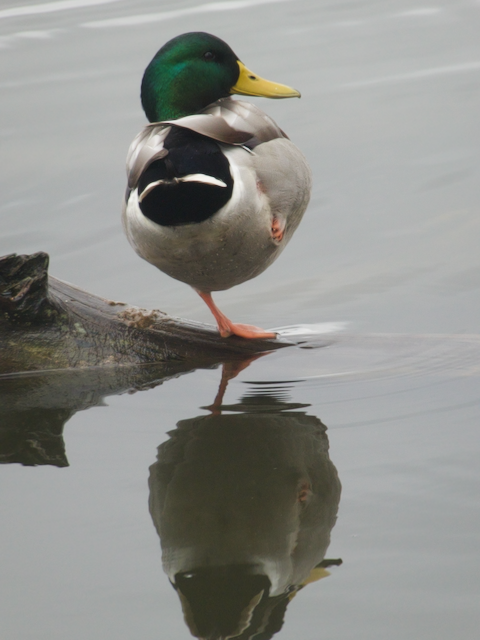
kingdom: Animalia
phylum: Chordata
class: Aves
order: Anseriformes
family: Anatidae
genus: Anas
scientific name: Anas platyrhynchos
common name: Mallard
